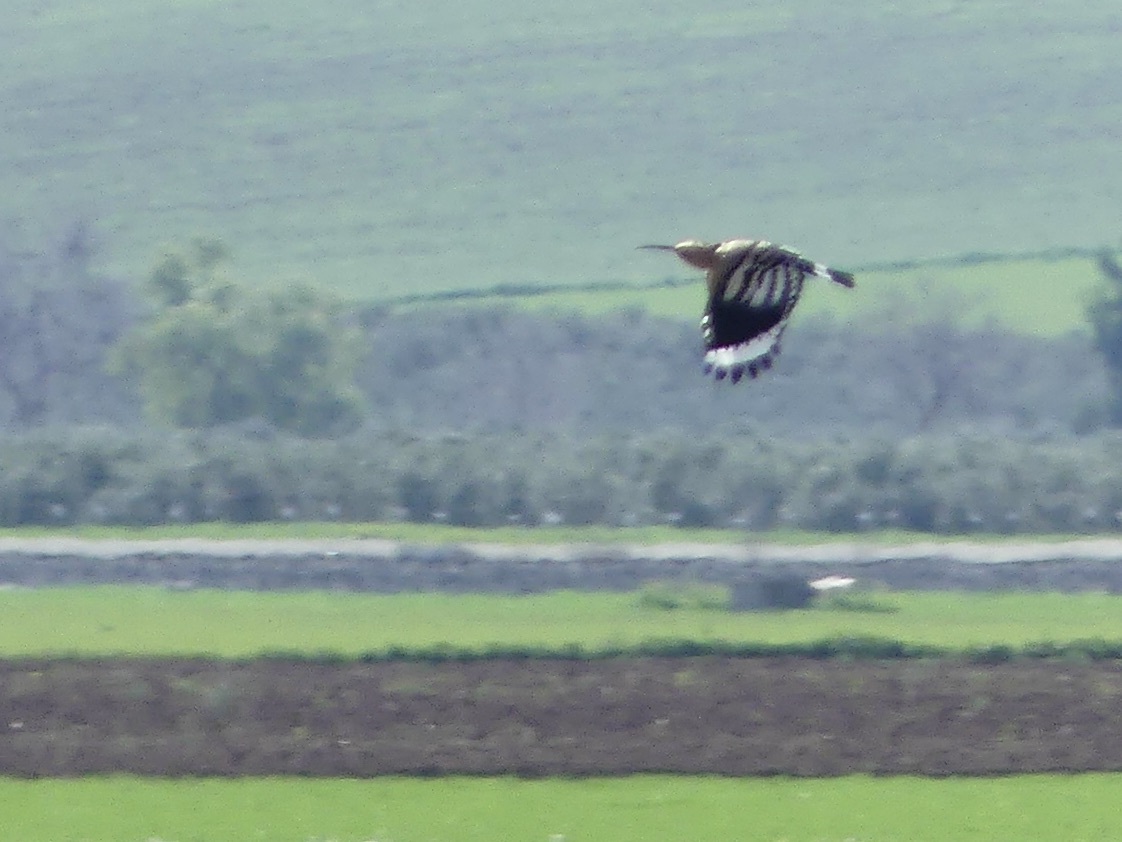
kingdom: Animalia
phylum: Chordata
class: Aves
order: Bucerotiformes
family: Upupidae
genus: Upupa
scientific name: Upupa epops
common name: Eurasian hoopoe
